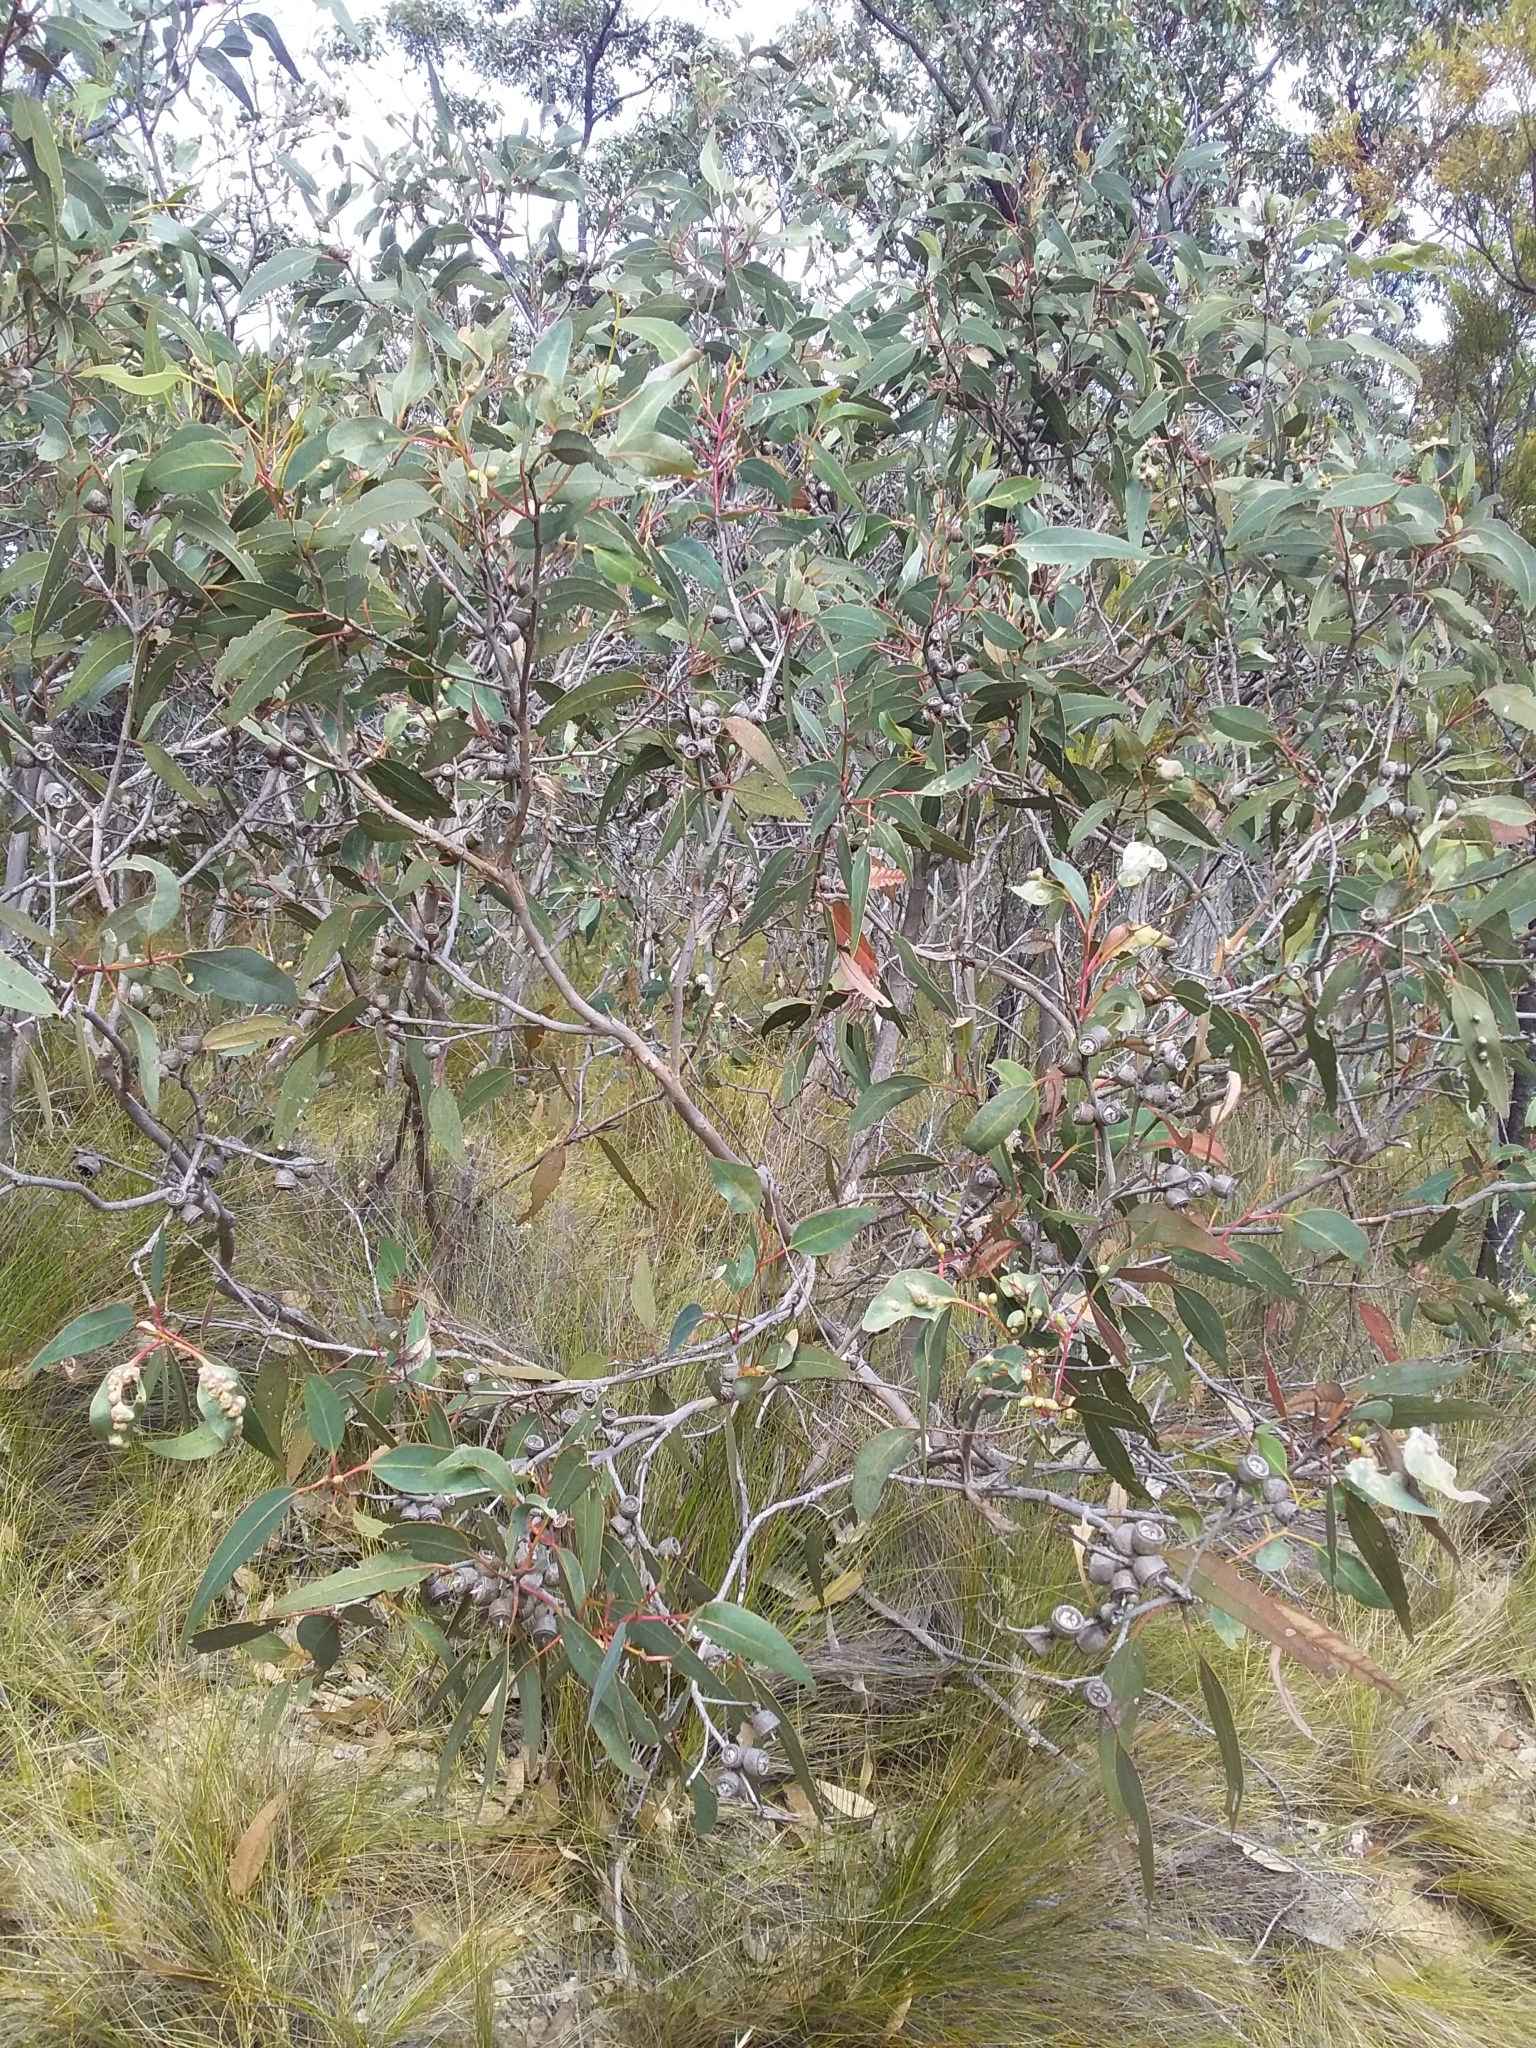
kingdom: Plantae
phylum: Tracheophyta
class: Magnoliopsida
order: Myrtales
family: Myrtaceae
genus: Eucalyptus
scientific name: Eucalyptus cosmophylla
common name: Bog-gum
